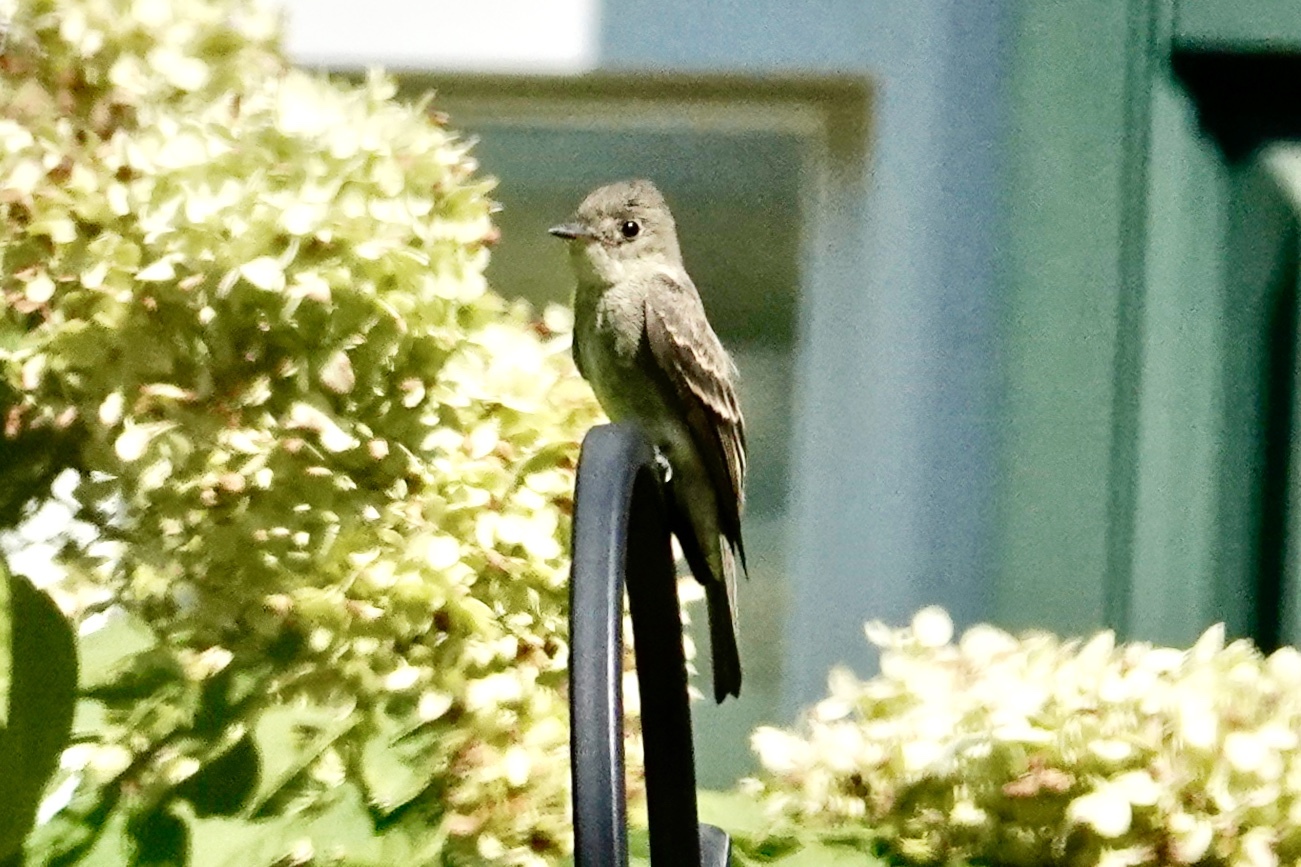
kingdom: Animalia
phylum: Chordata
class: Aves
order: Passeriformes
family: Tyrannidae
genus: Contopus
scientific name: Contopus virens
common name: Eastern wood-pewee
